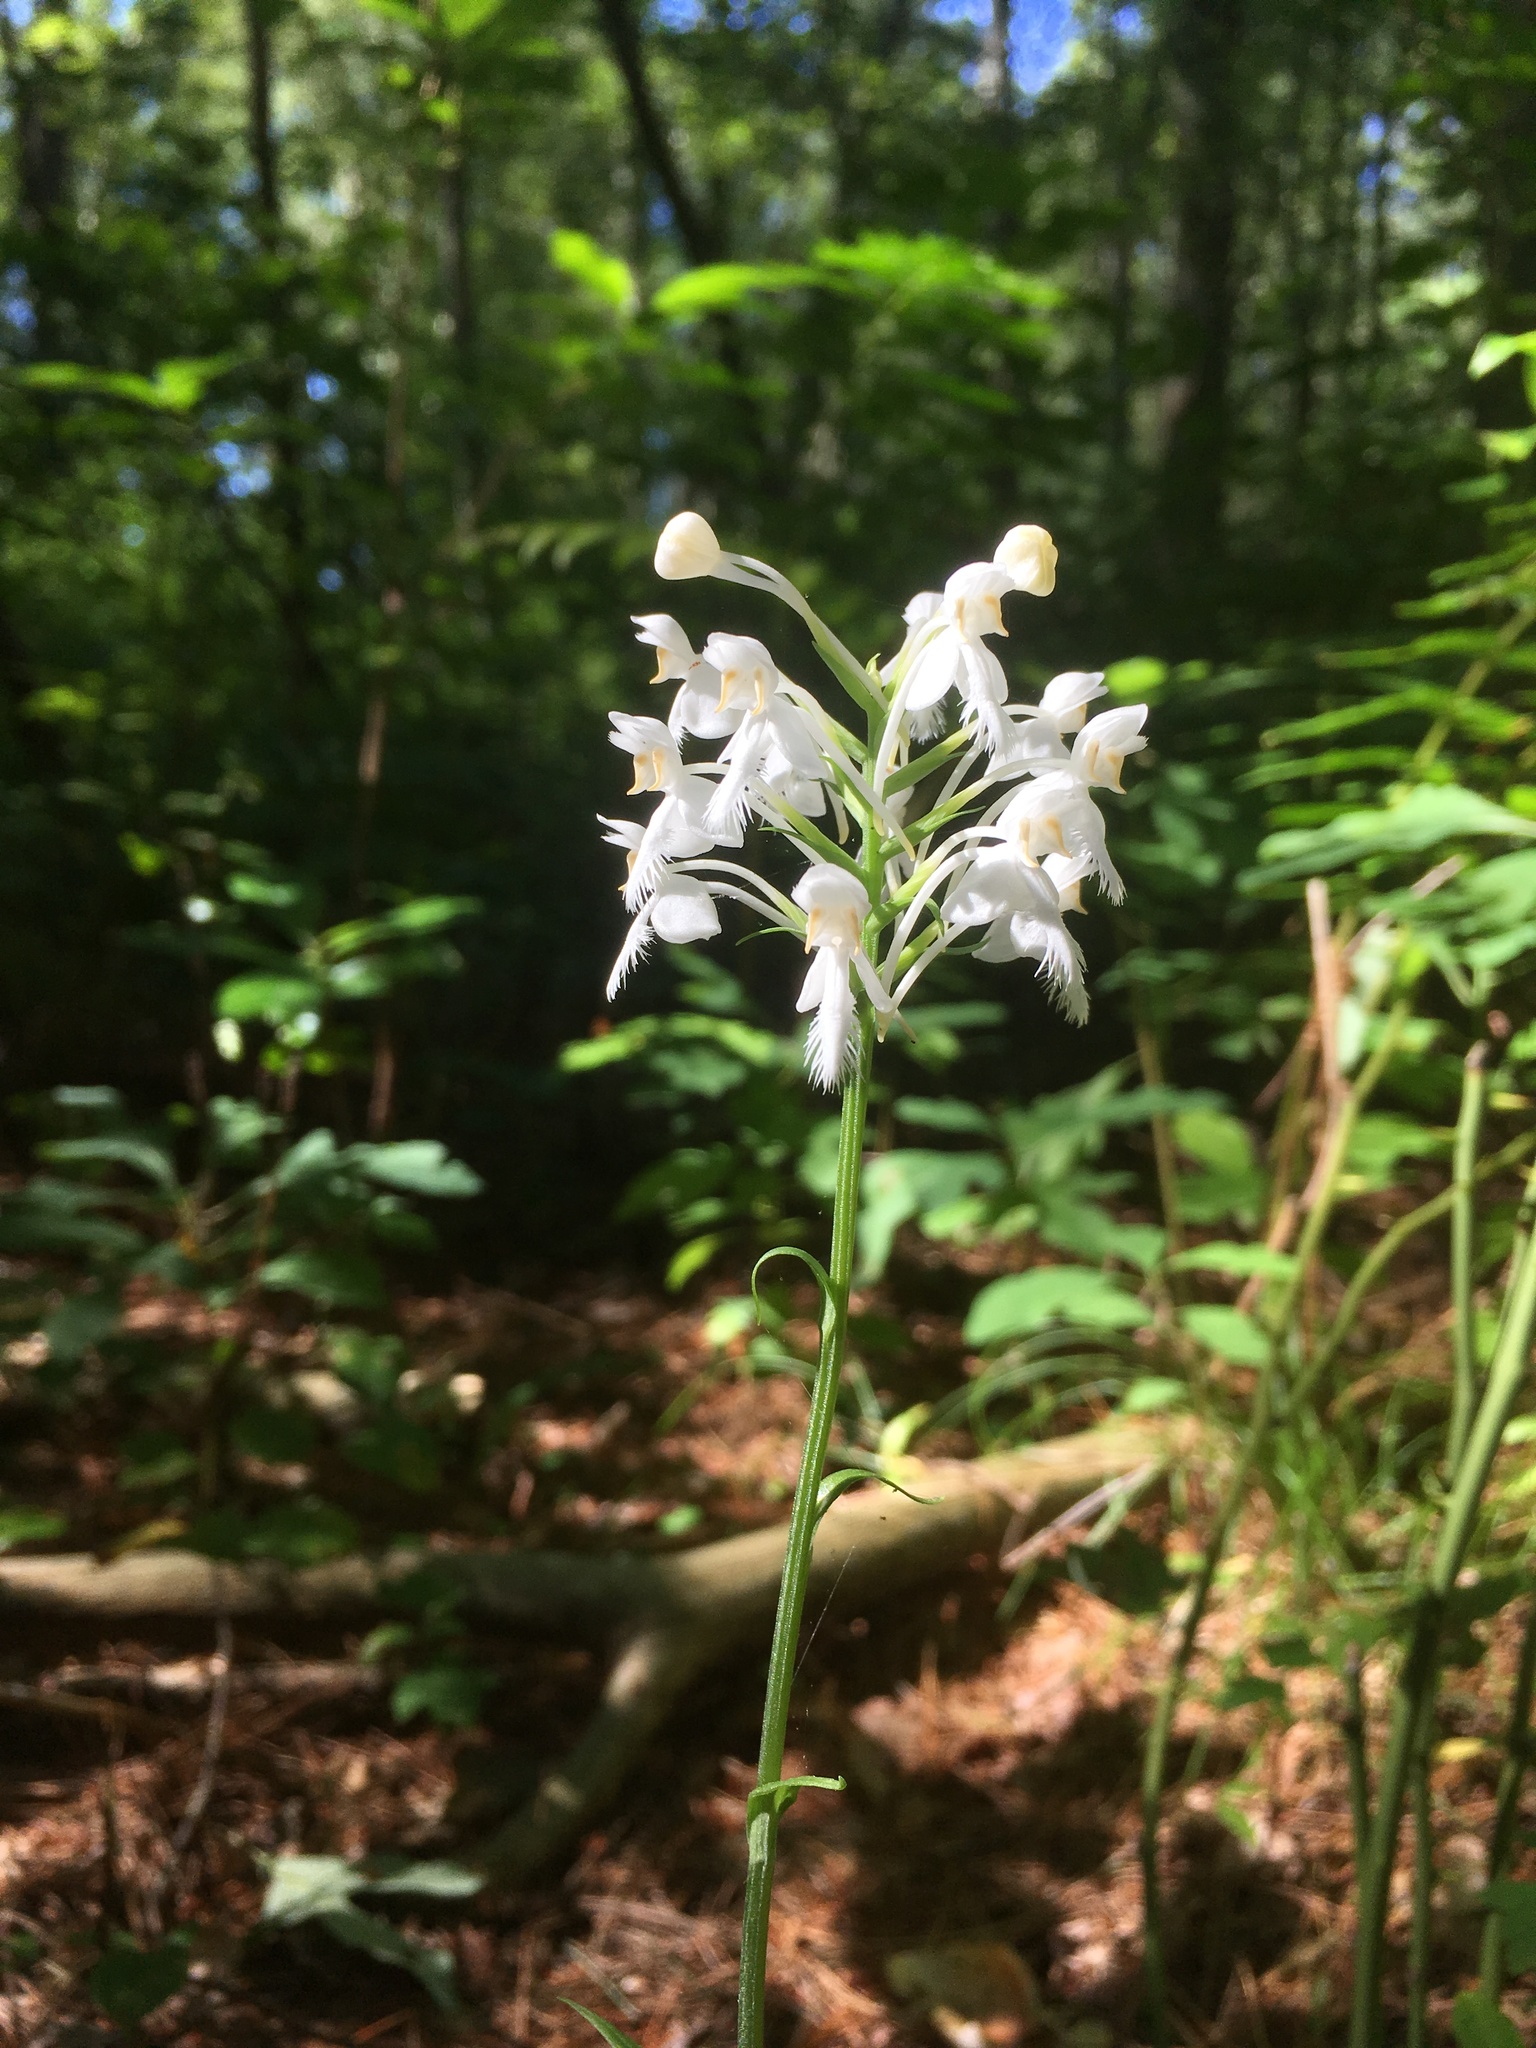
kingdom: Plantae
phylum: Tracheophyta
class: Liliopsida
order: Asparagales
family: Orchidaceae
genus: Platanthera
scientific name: Platanthera blephariglottis
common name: White fringed orchid
